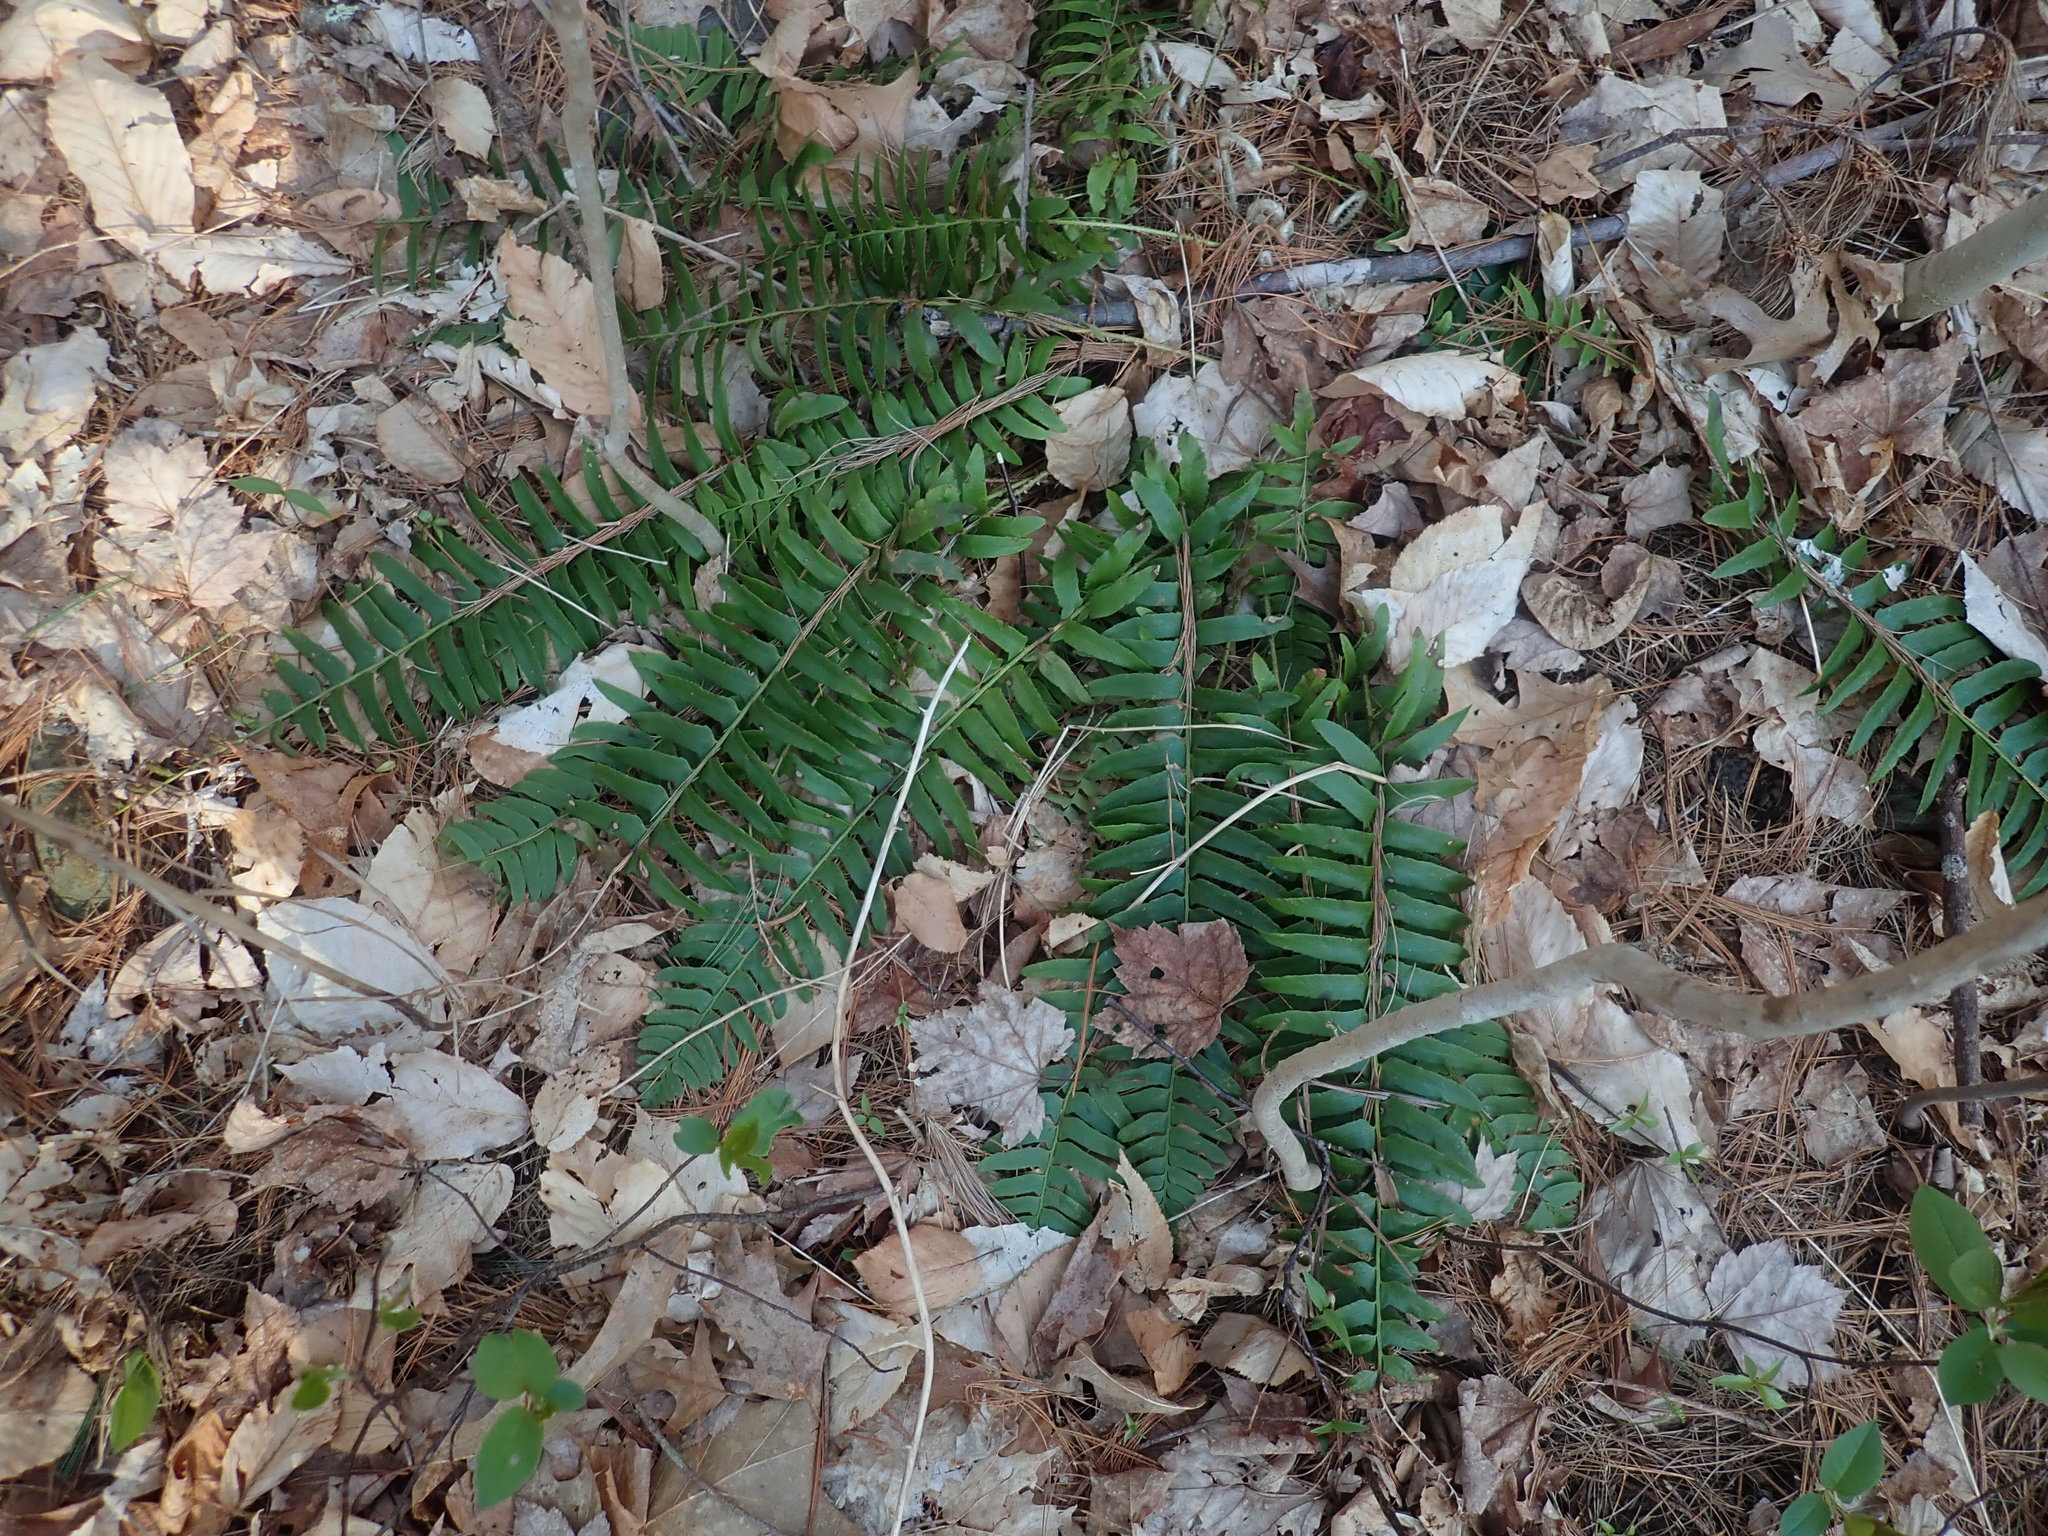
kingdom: Plantae
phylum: Tracheophyta
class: Polypodiopsida
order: Polypodiales
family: Dryopteridaceae
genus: Polystichum
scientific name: Polystichum acrostichoides
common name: Christmas fern
